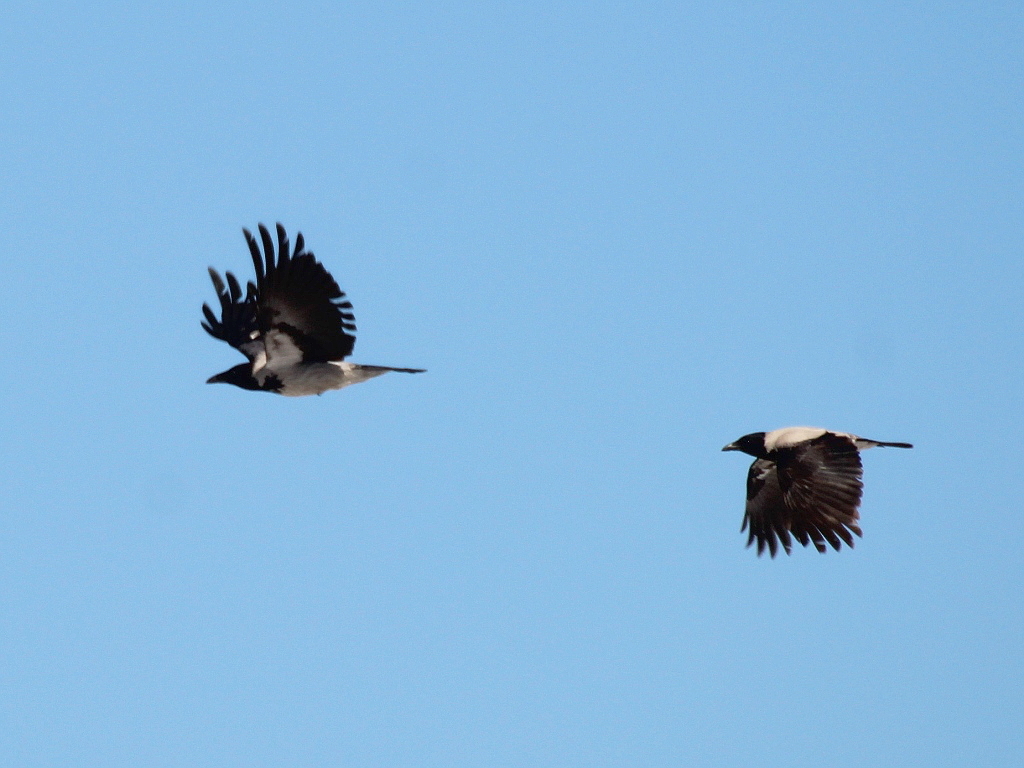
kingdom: Animalia
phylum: Chordata
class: Aves
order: Passeriformes
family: Corvidae
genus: Corvus
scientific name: Corvus cornix
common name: Hooded crow
